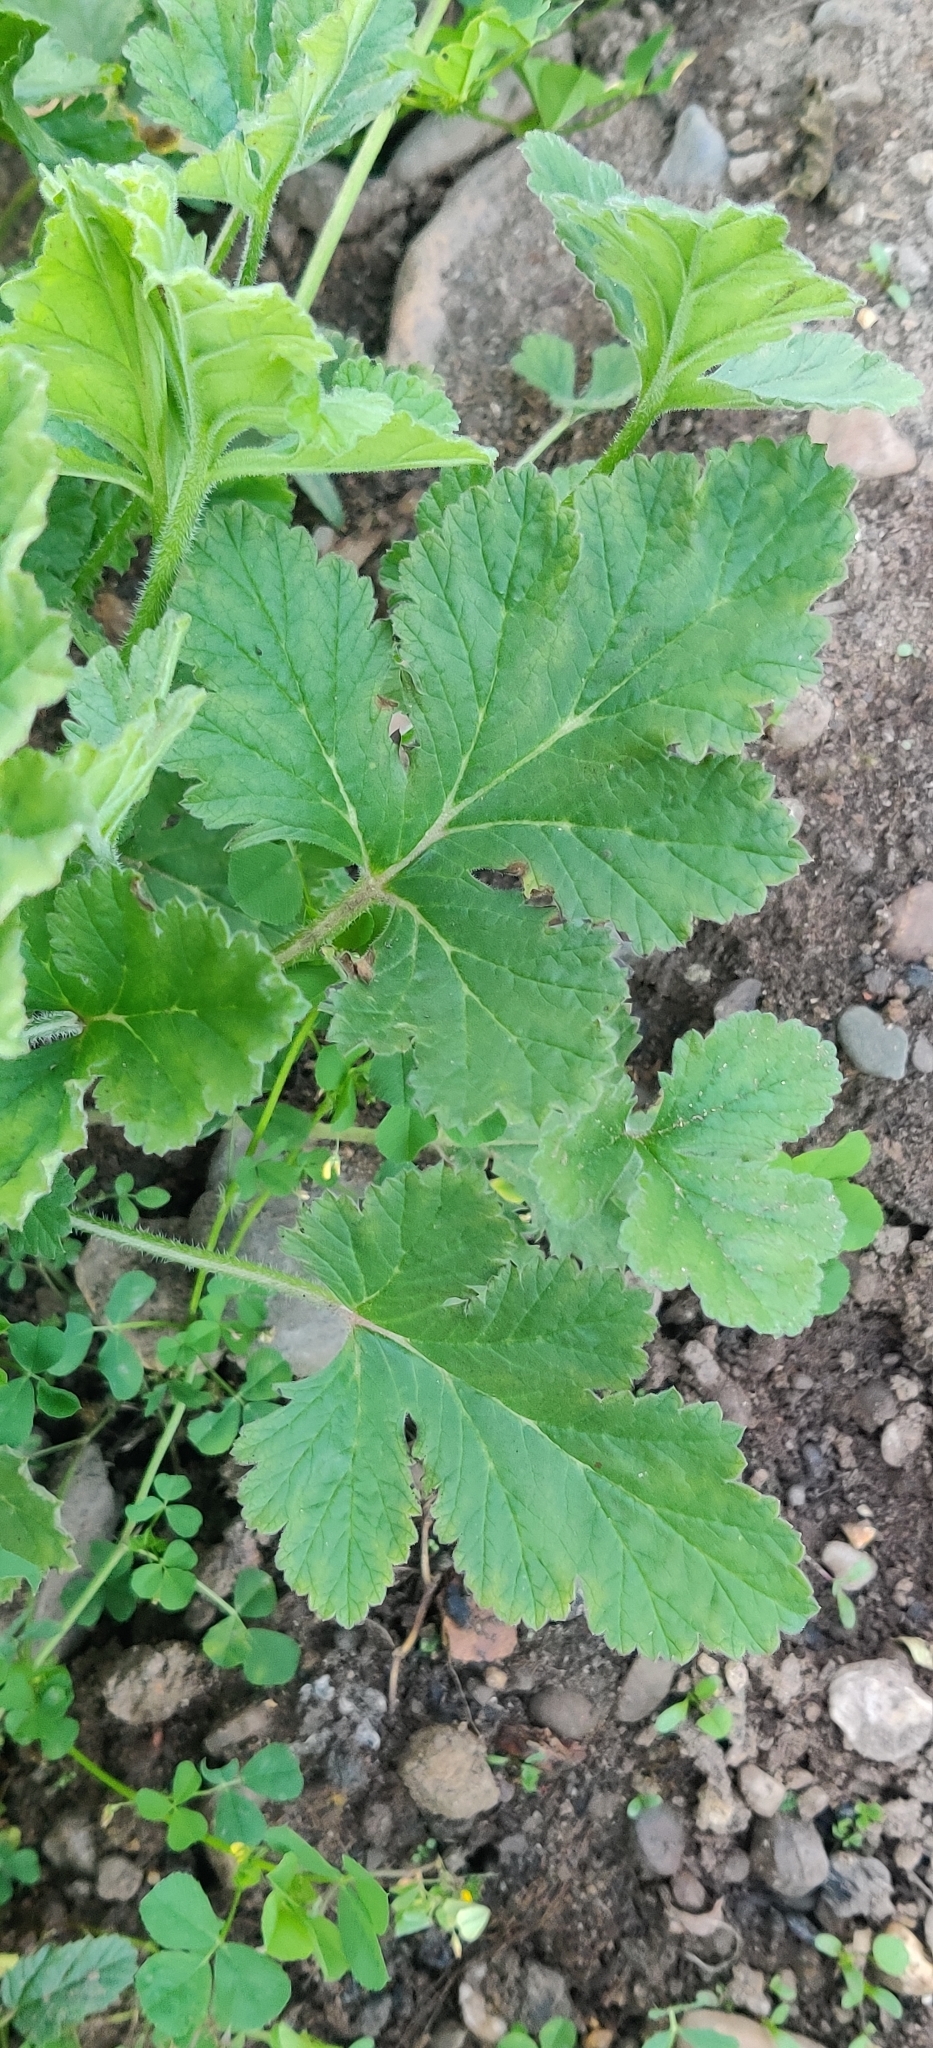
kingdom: Plantae
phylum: Tracheophyta
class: Magnoliopsida
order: Geraniales
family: Geraniaceae
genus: Erodium
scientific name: Erodium crinitum
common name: Eastern stork's-bill
